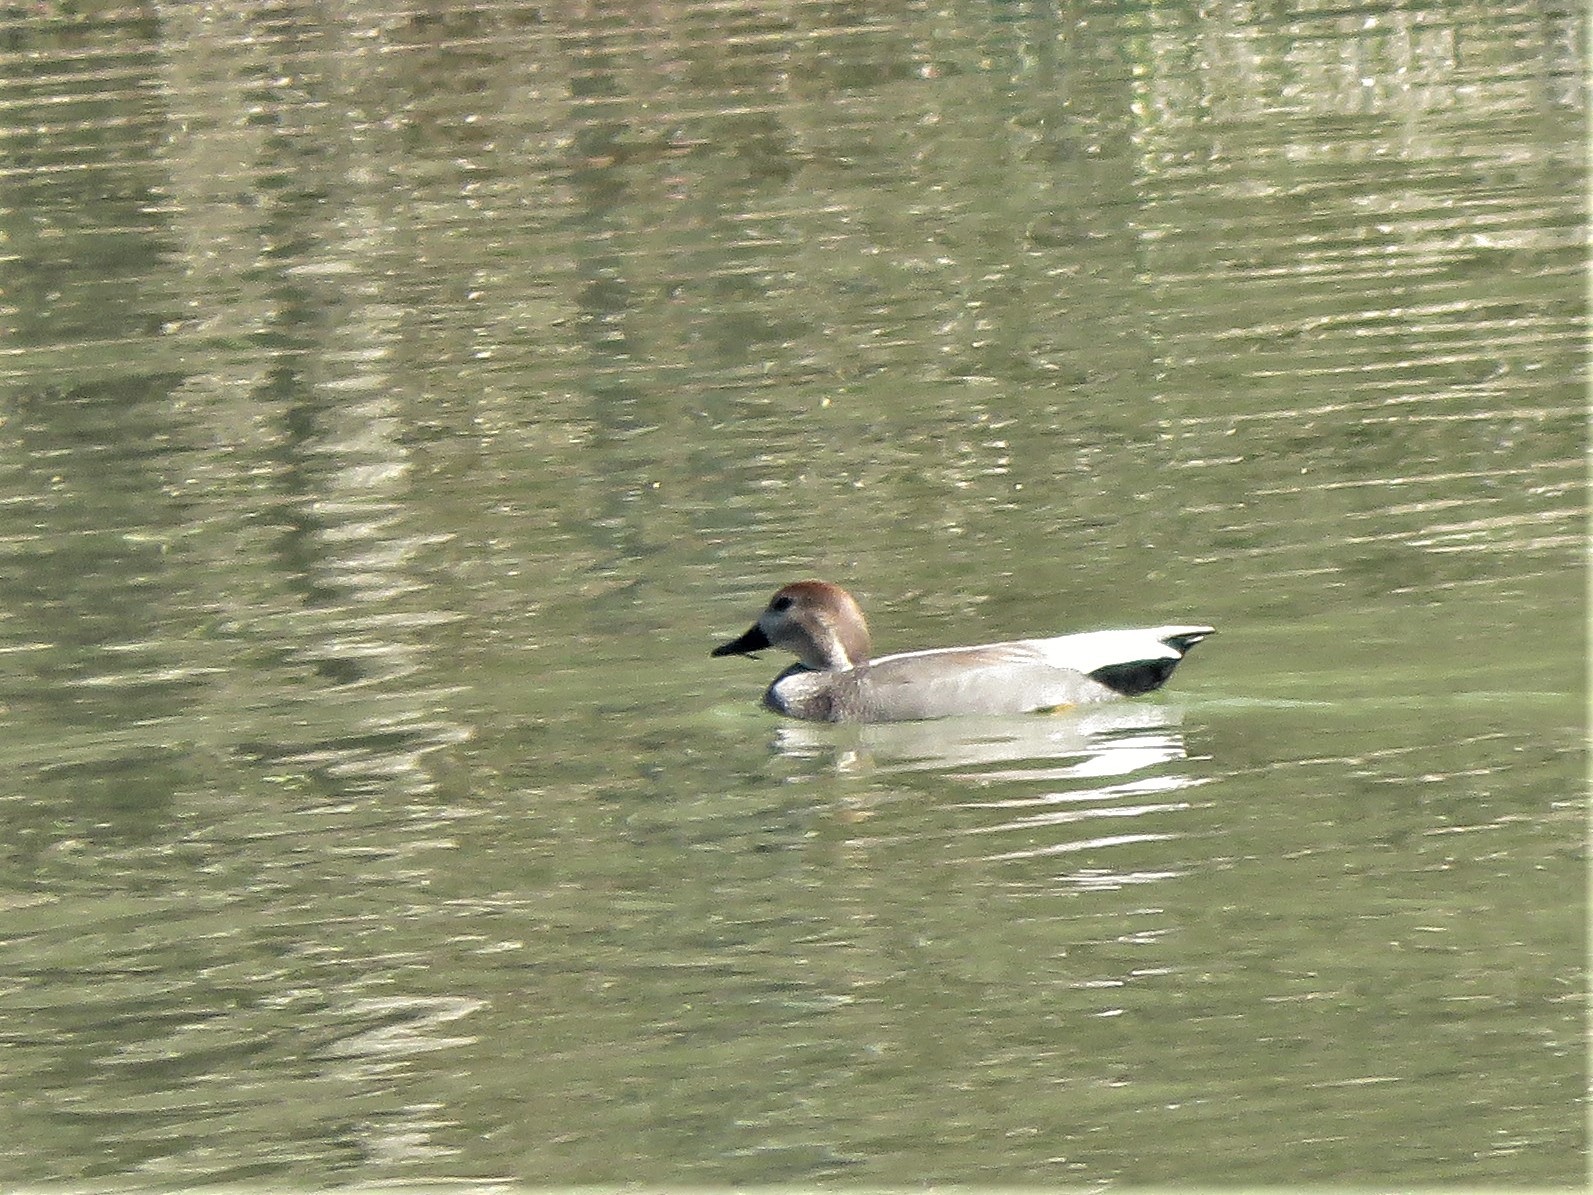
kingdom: Animalia
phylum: Chordata
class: Aves
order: Anseriformes
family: Anatidae
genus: Mareca
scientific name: Mareca strepera
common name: Gadwall
